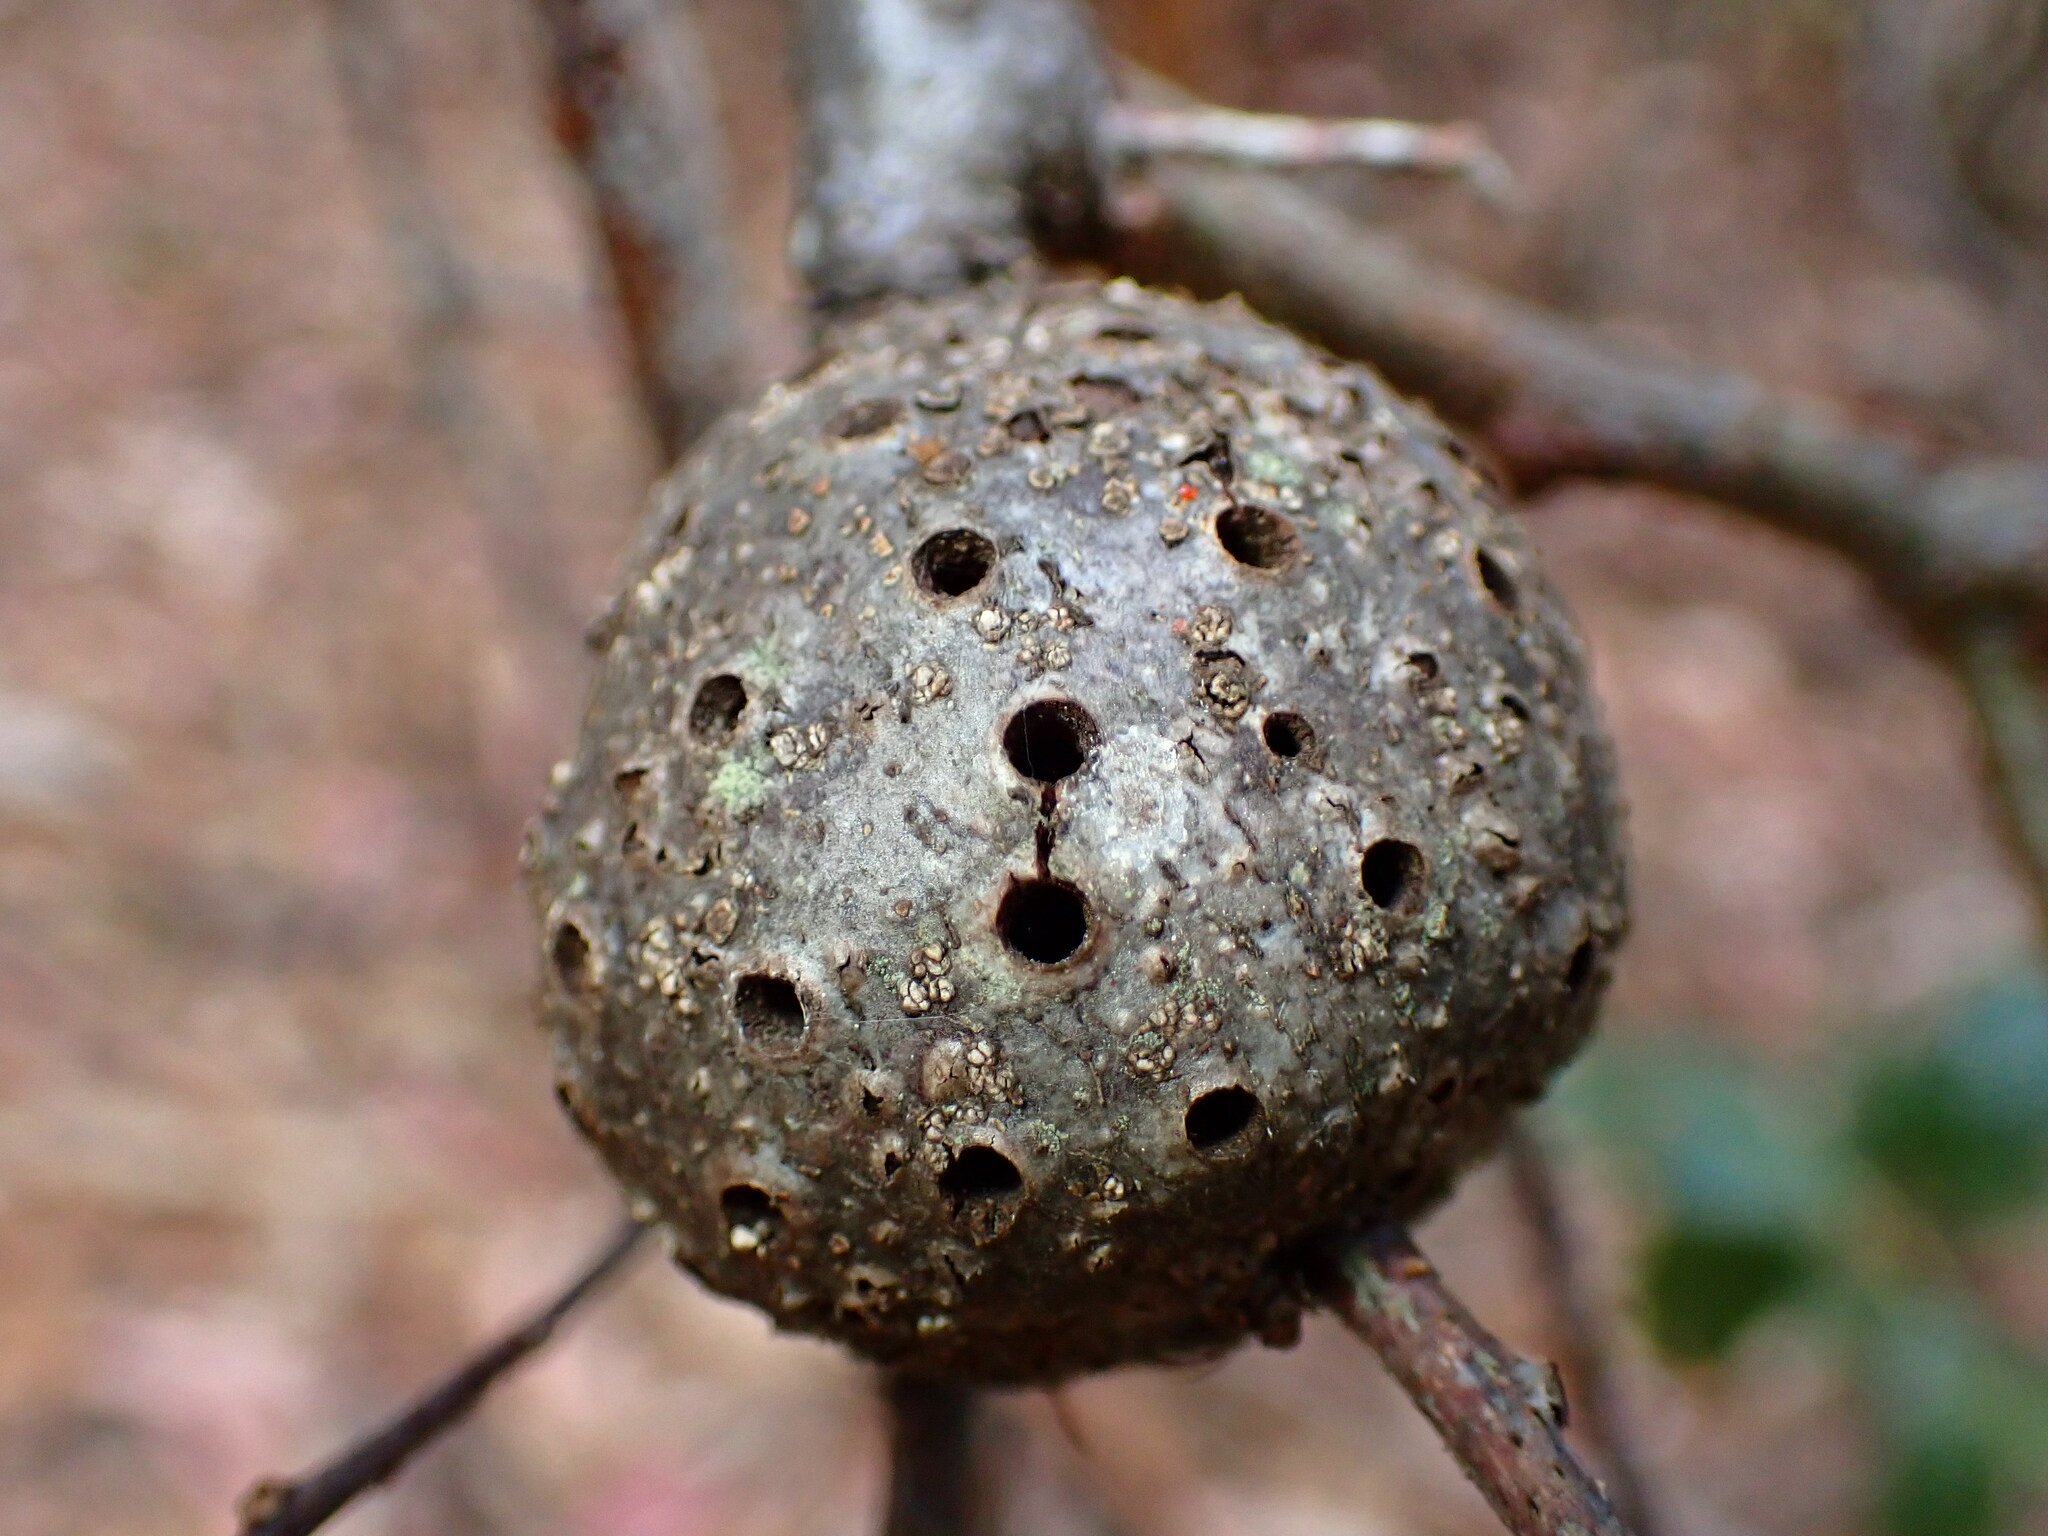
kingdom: Animalia
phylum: Arthropoda
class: Insecta
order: Hymenoptera
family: Cynipidae
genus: Callirhytis
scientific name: Callirhytis
